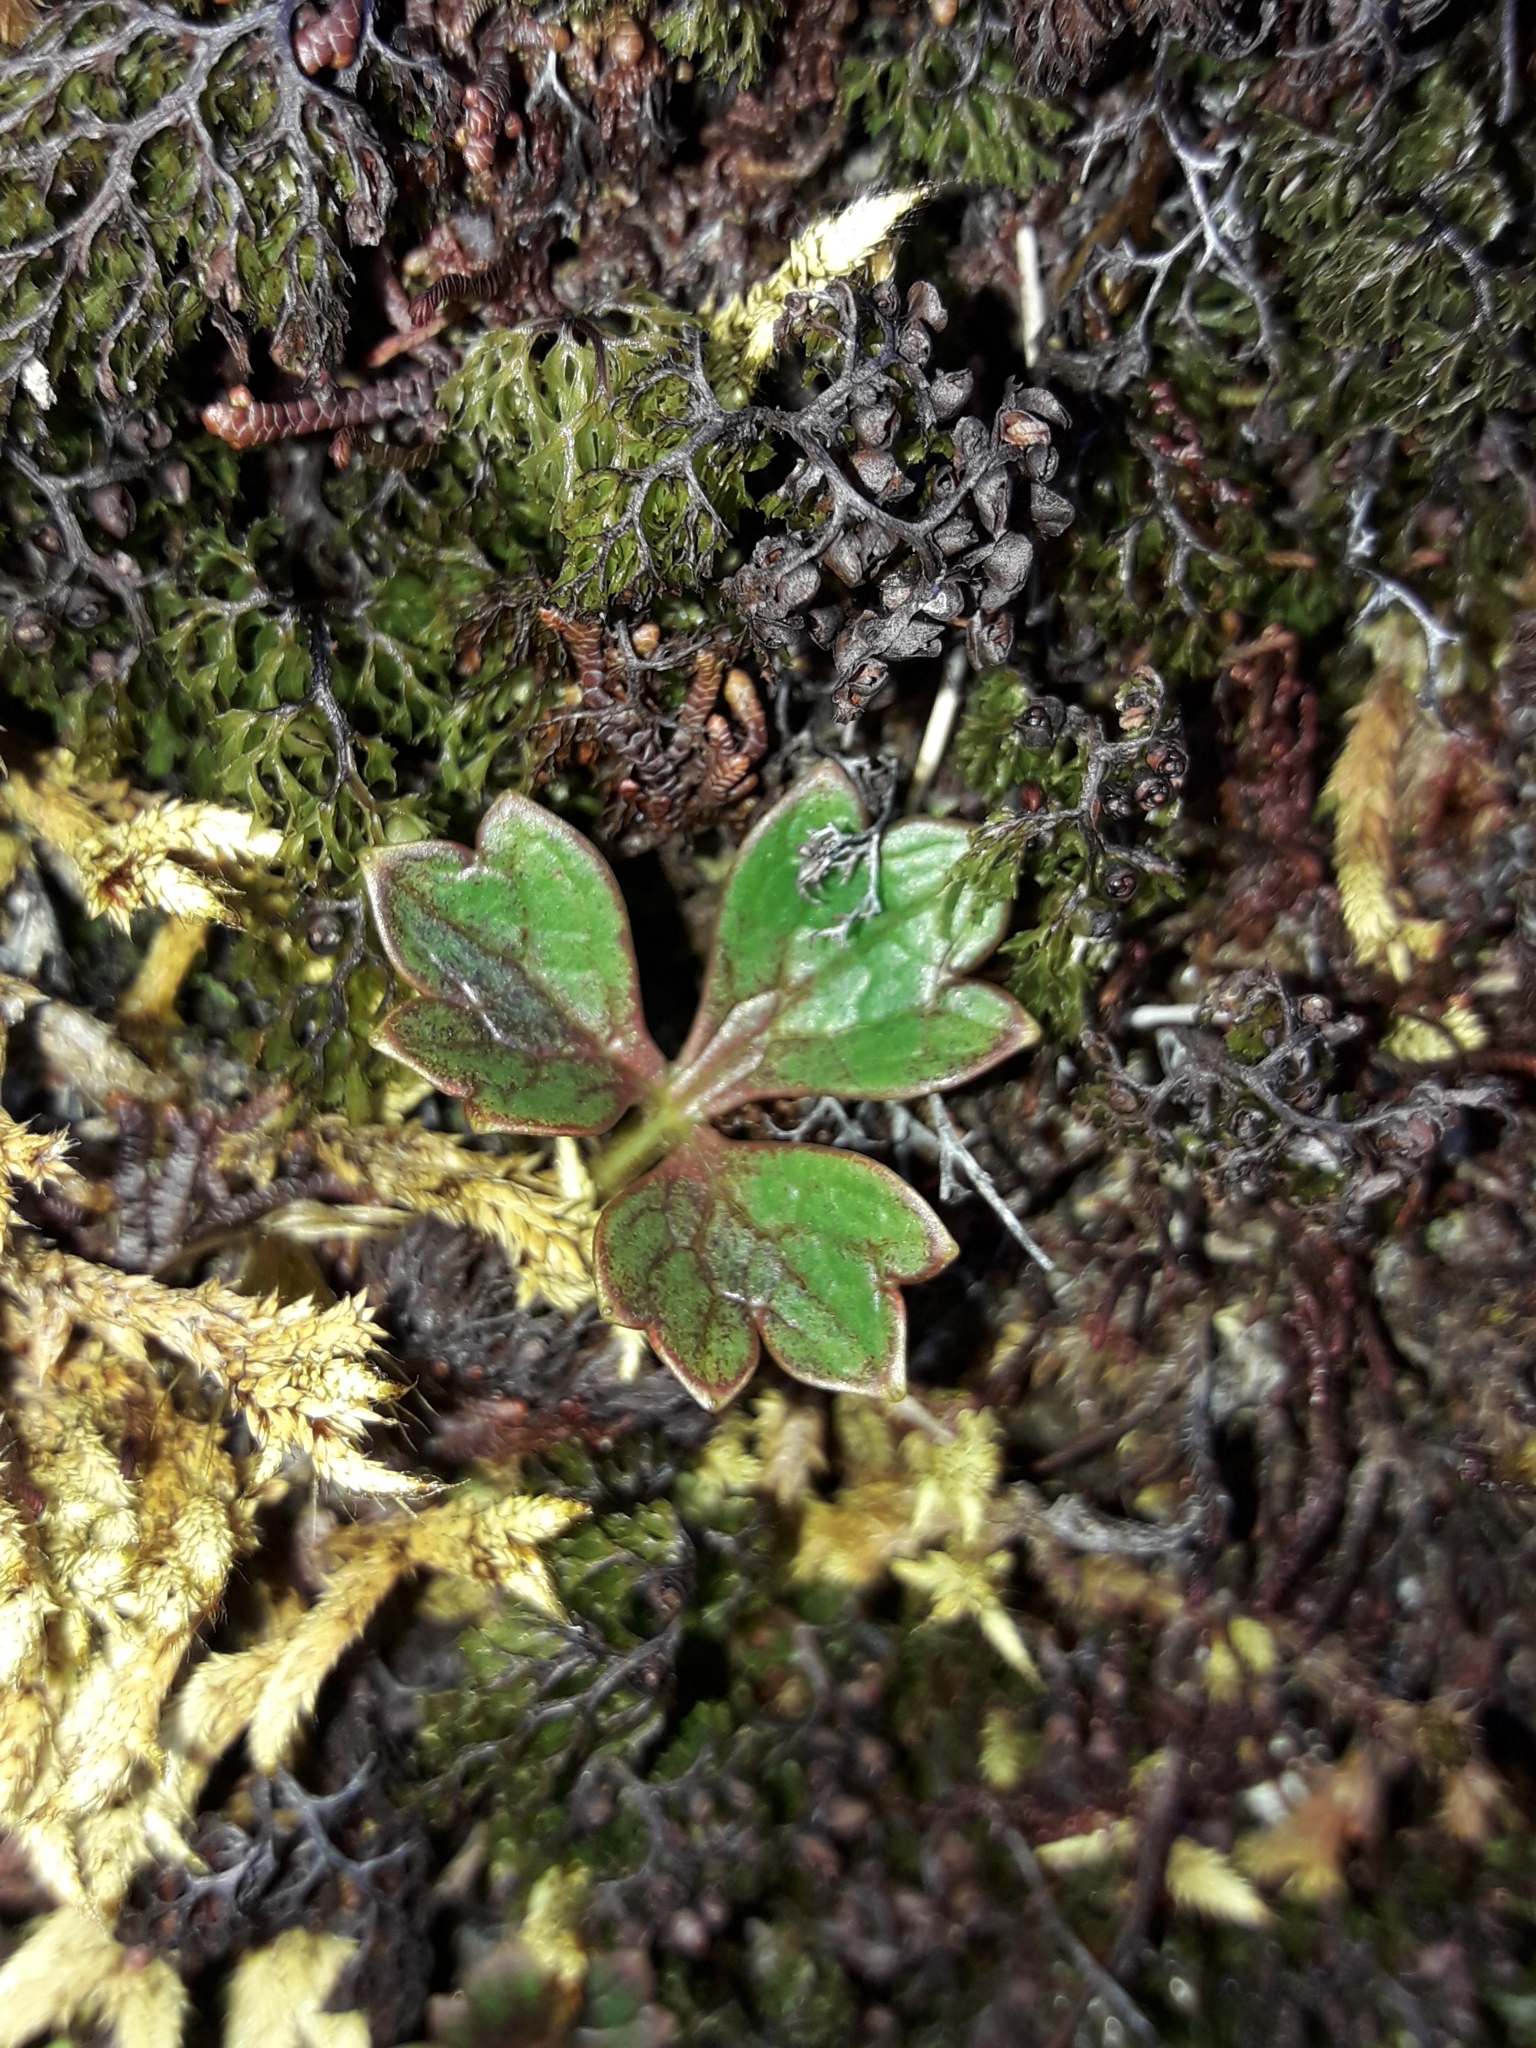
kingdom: Plantae
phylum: Tracheophyta
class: Magnoliopsida
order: Ranunculales
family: Ranunculaceae
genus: Ranunculus
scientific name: Ranunculus verticillatus
